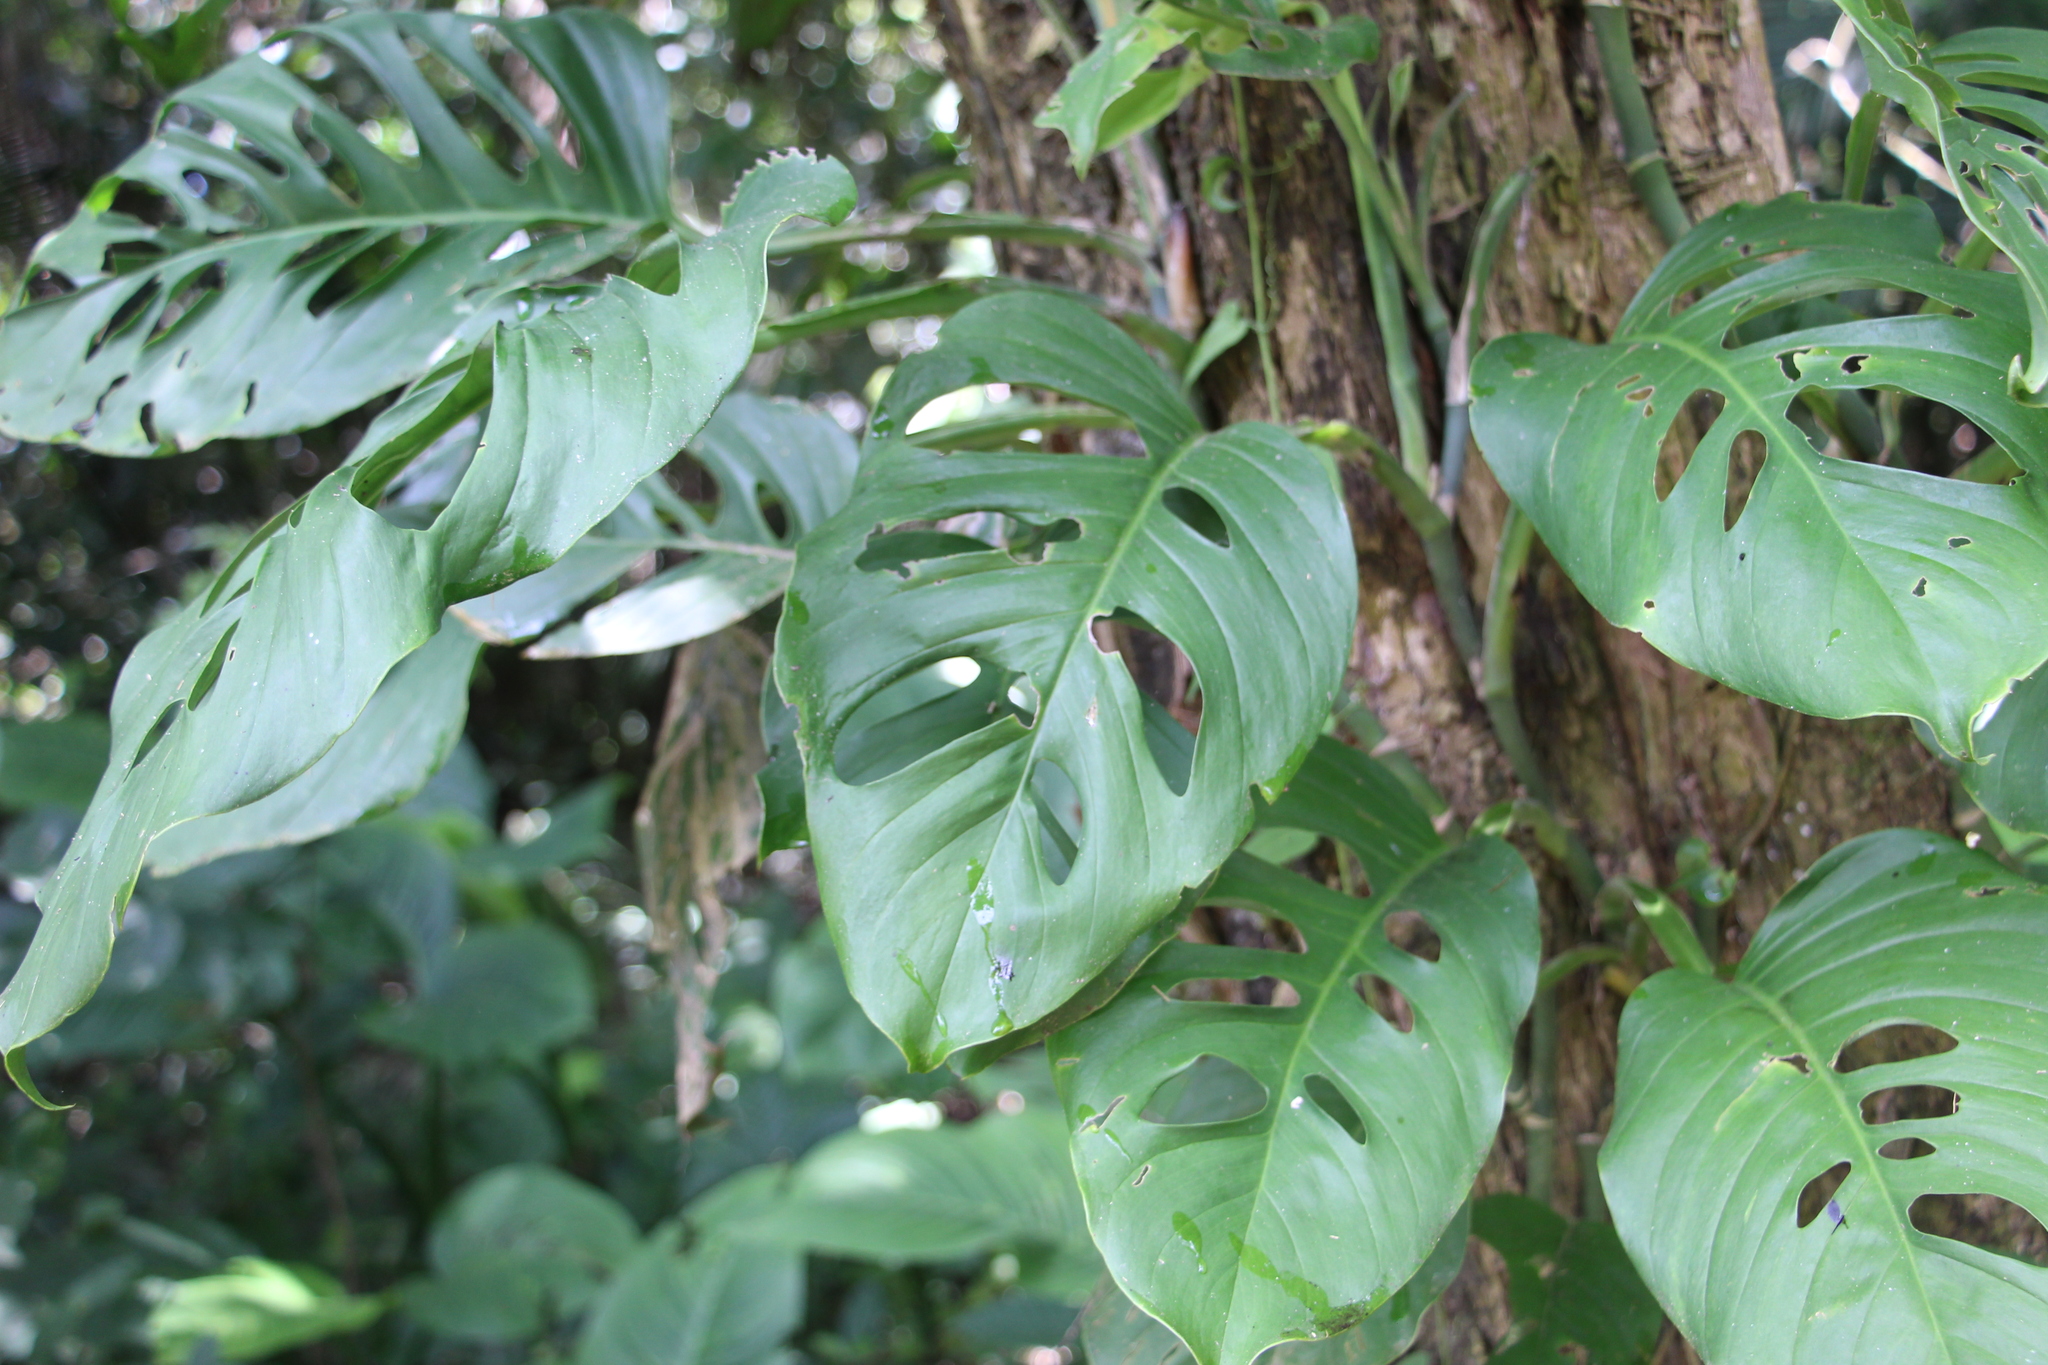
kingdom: Plantae
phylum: Tracheophyta
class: Liliopsida
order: Alismatales
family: Araceae
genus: Monstera
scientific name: Monstera adansonii
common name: Tarovine
